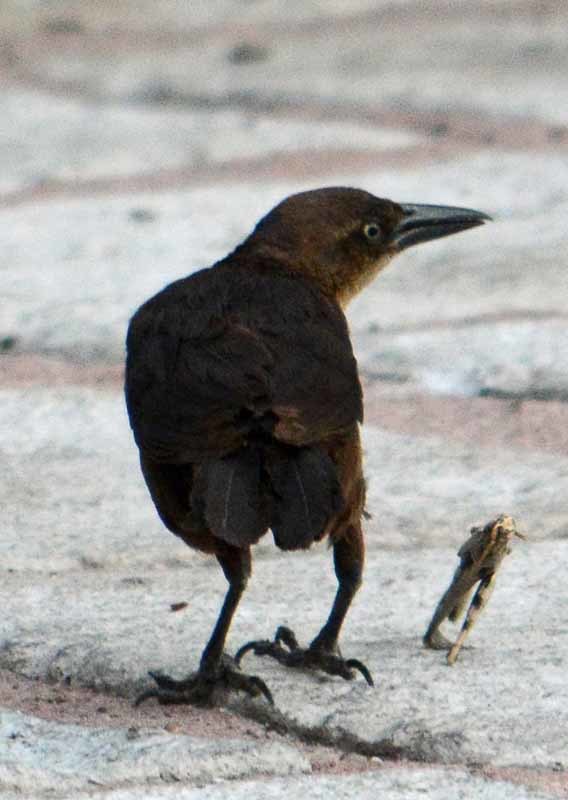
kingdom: Animalia
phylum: Chordata
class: Aves
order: Passeriformes
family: Icteridae
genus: Quiscalus
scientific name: Quiscalus mexicanus
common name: Great-tailed grackle
